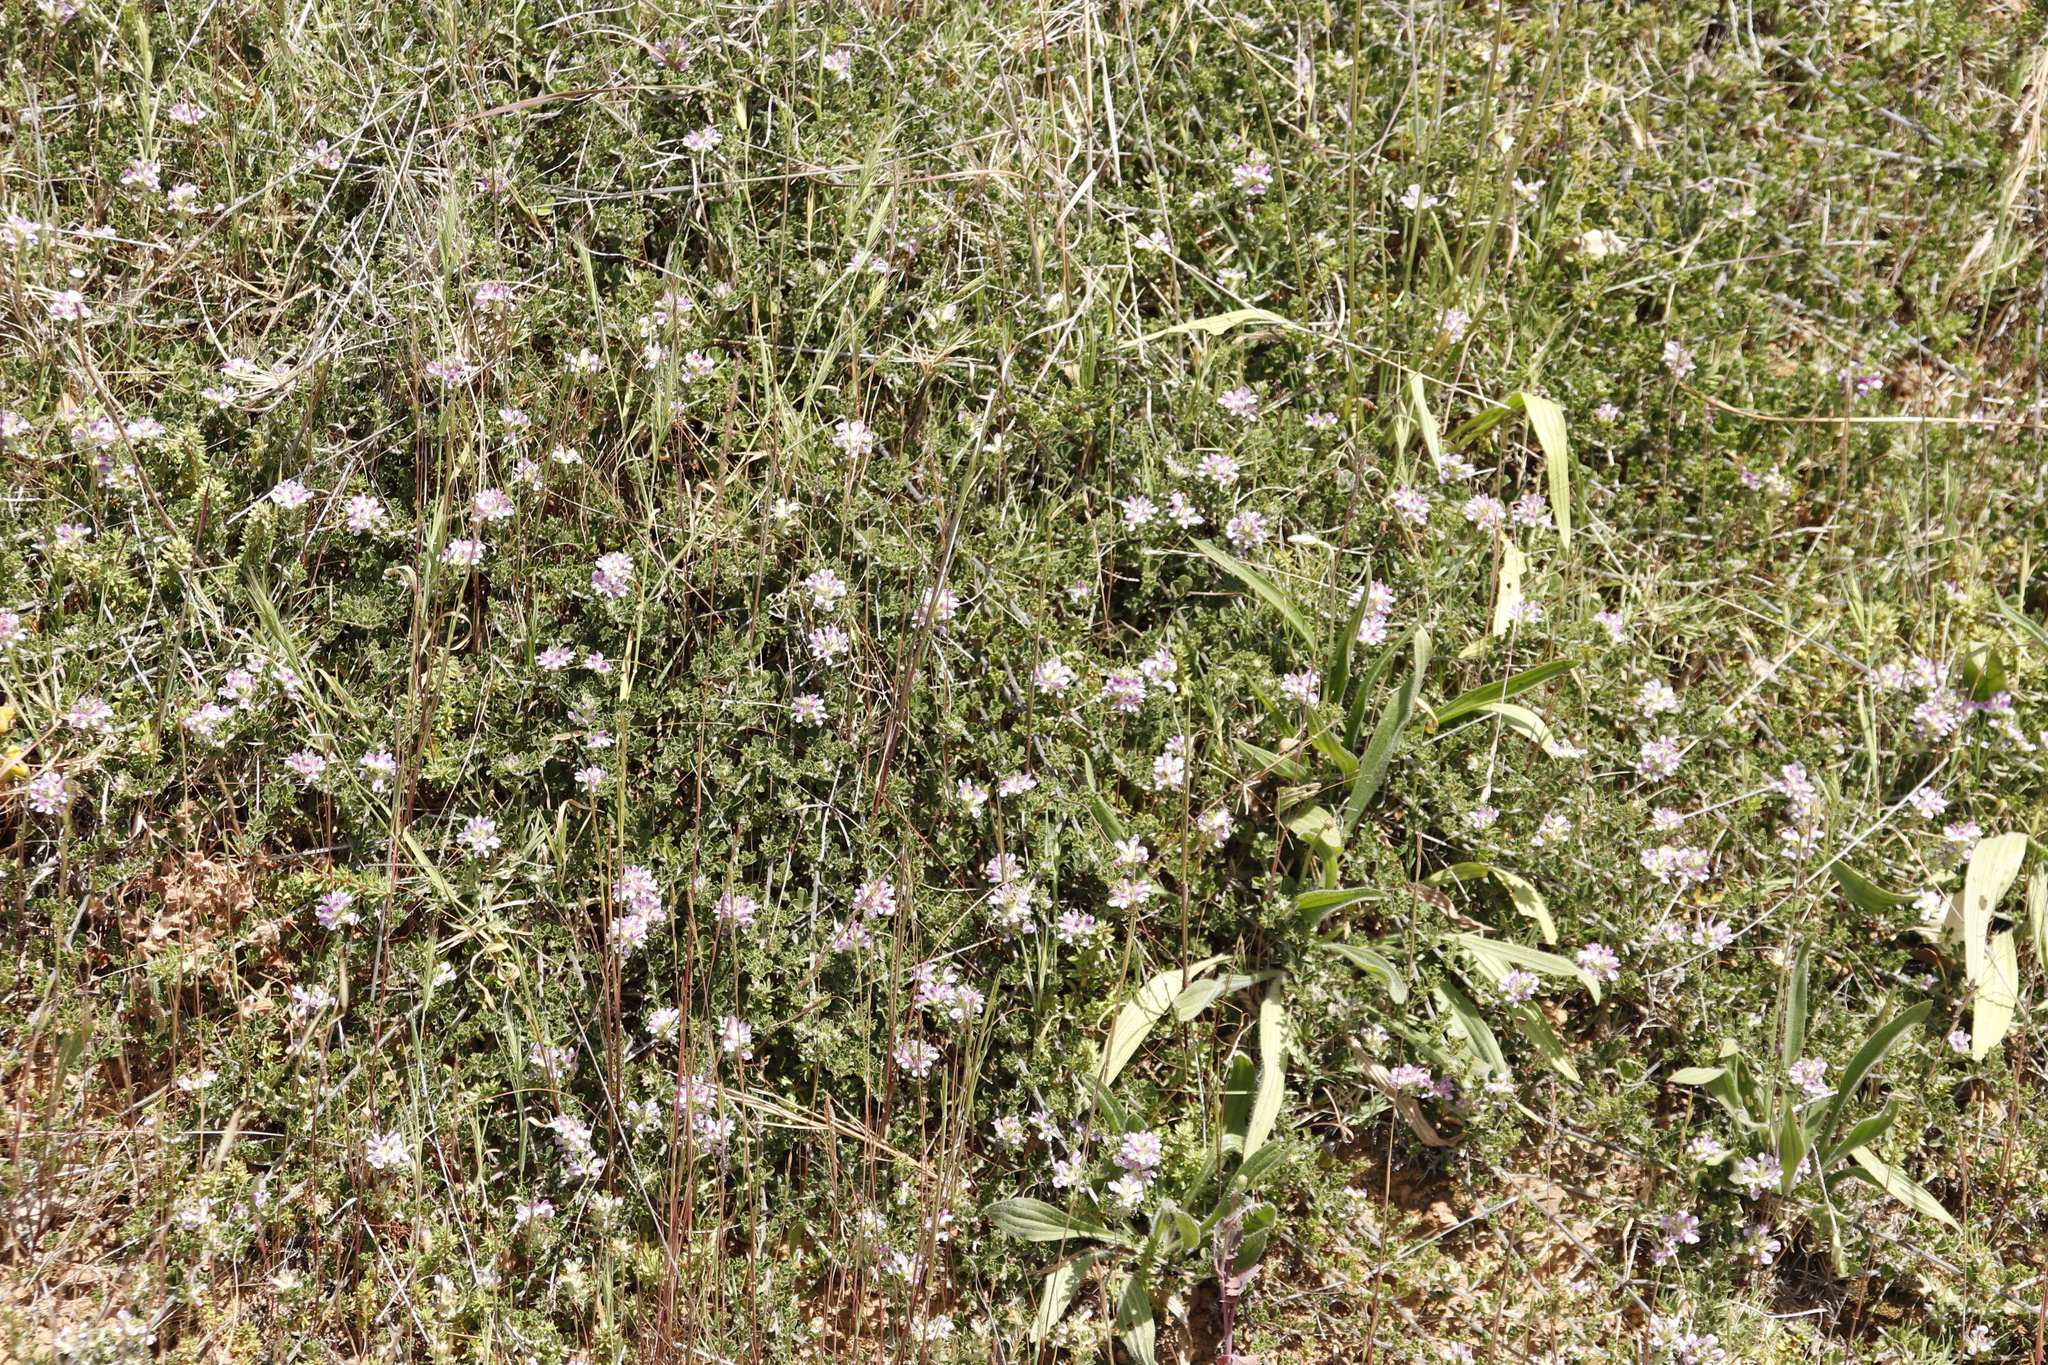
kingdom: Plantae
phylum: Tracheophyta
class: Magnoliopsida
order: Fabales
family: Fabaceae
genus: Psoralea
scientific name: Psoralea
